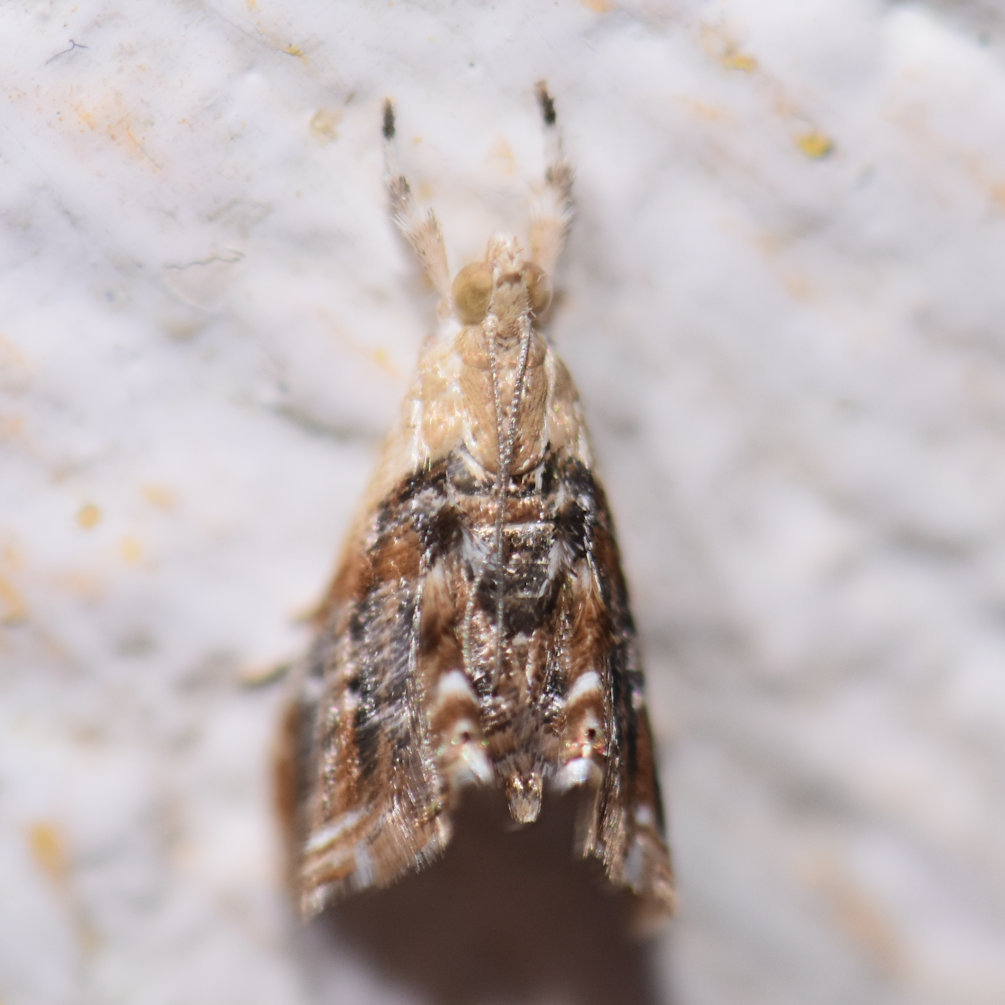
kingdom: Animalia
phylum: Arthropoda
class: Insecta
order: Lepidoptera
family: Crambidae
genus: Dicymolomia
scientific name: Dicymolomia metalophota
